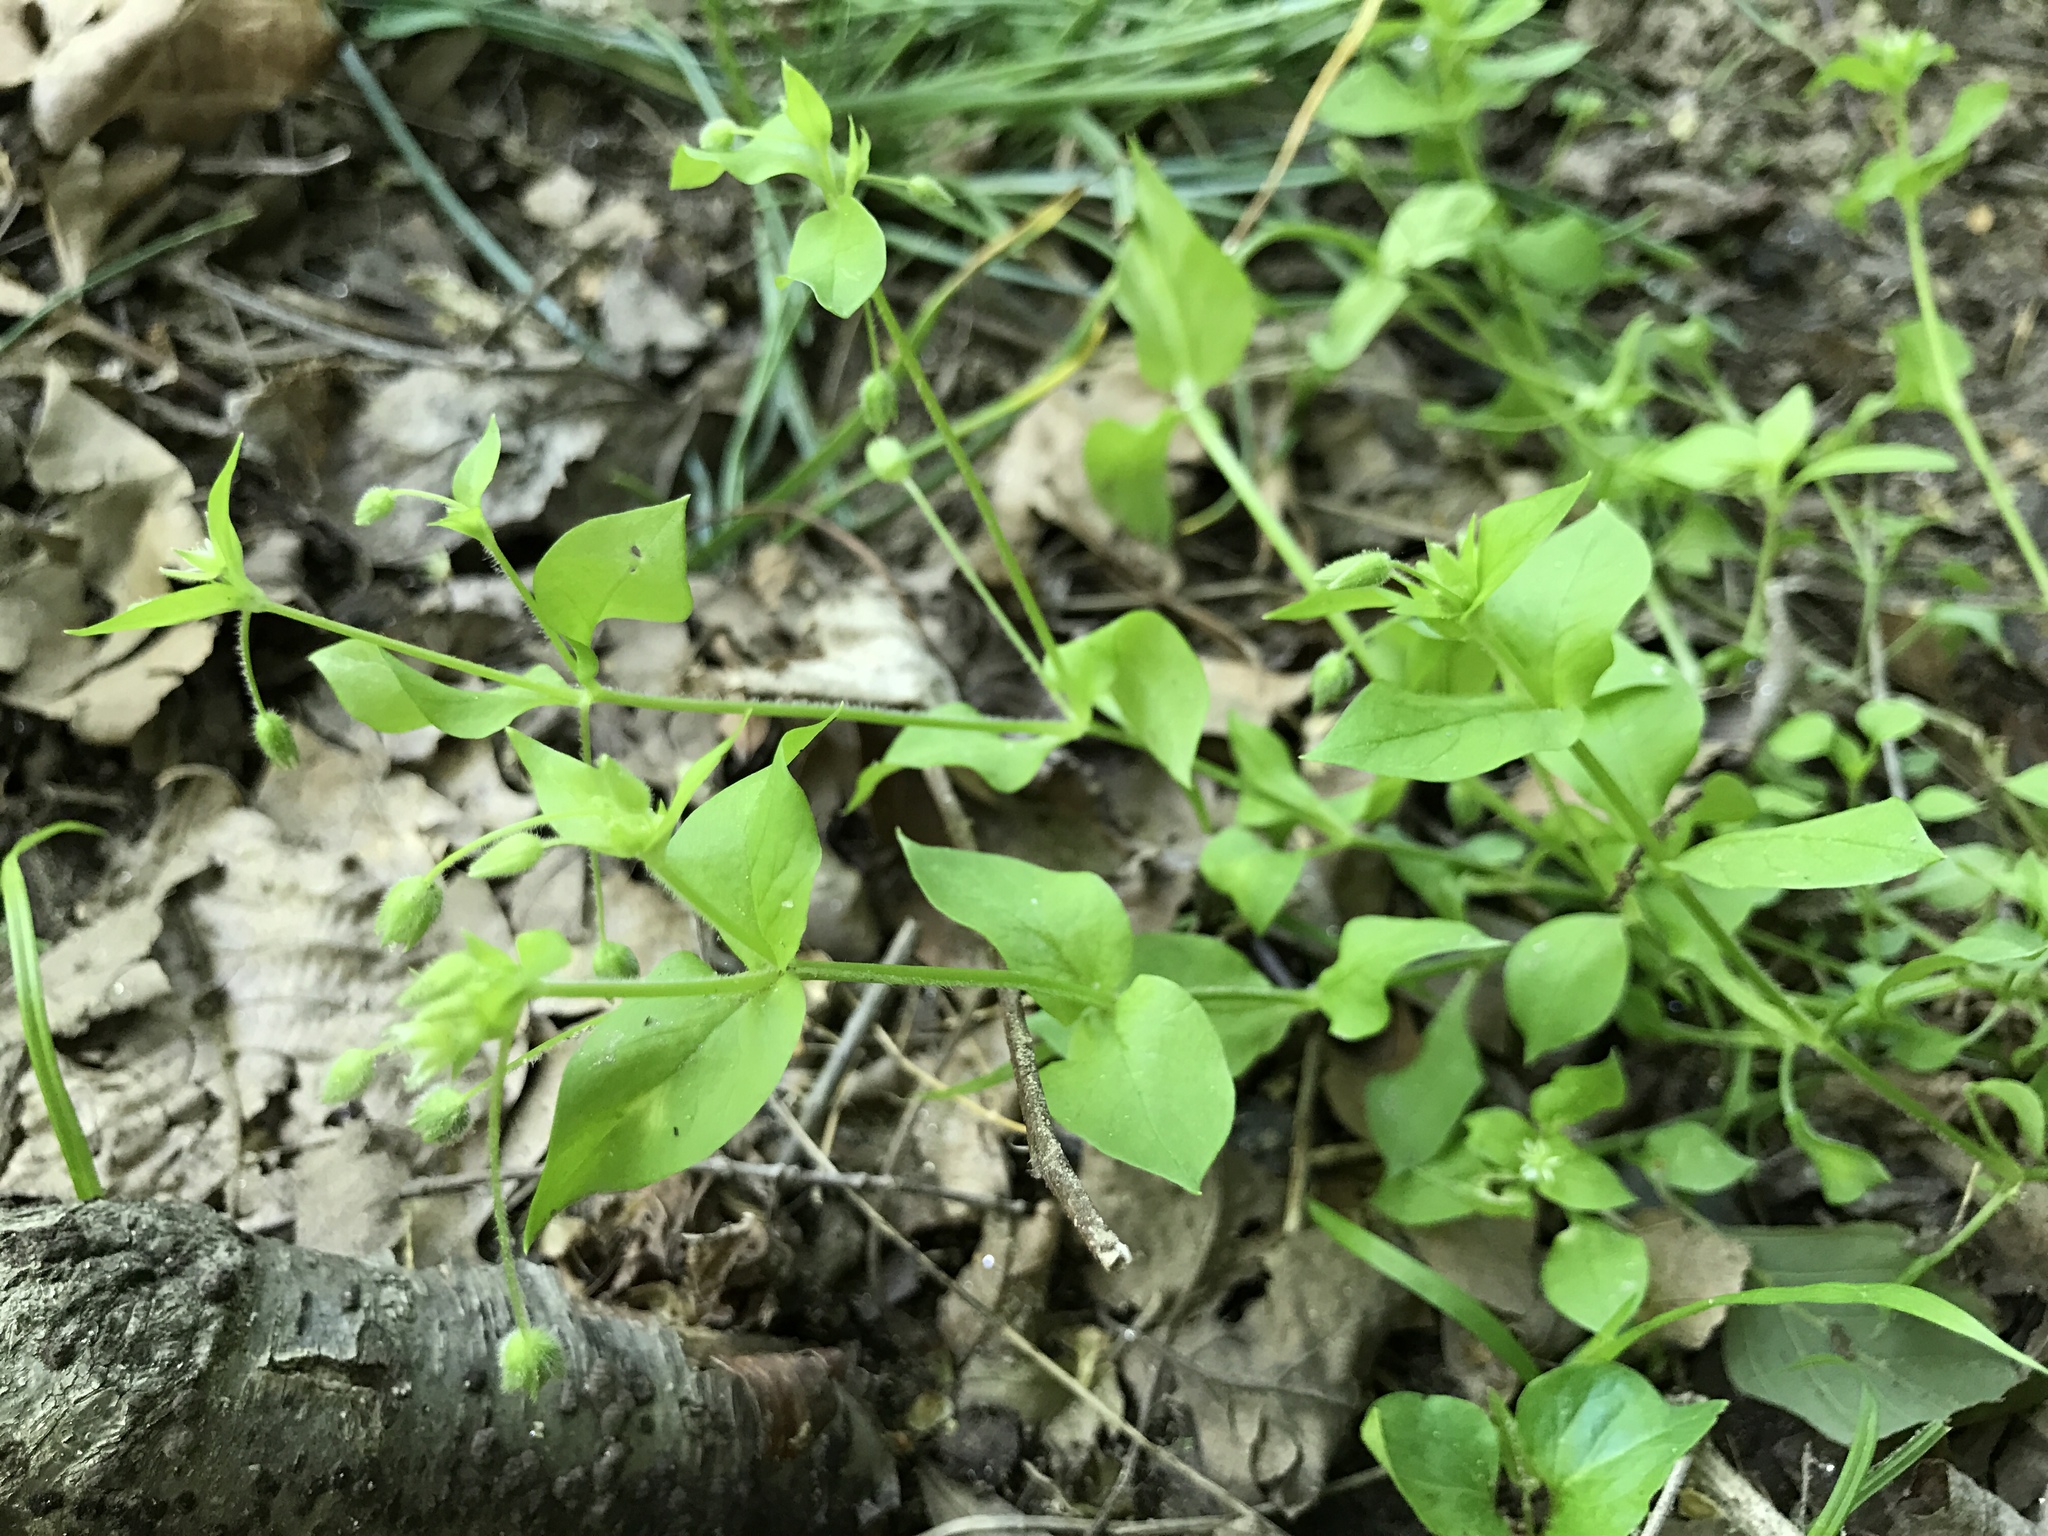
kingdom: Plantae
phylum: Tracheophyta
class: Magnoliopsida
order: Caryophyllales
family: Caryophyllaceae
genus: Stellaria
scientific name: Stellaria media
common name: Common chickweed
